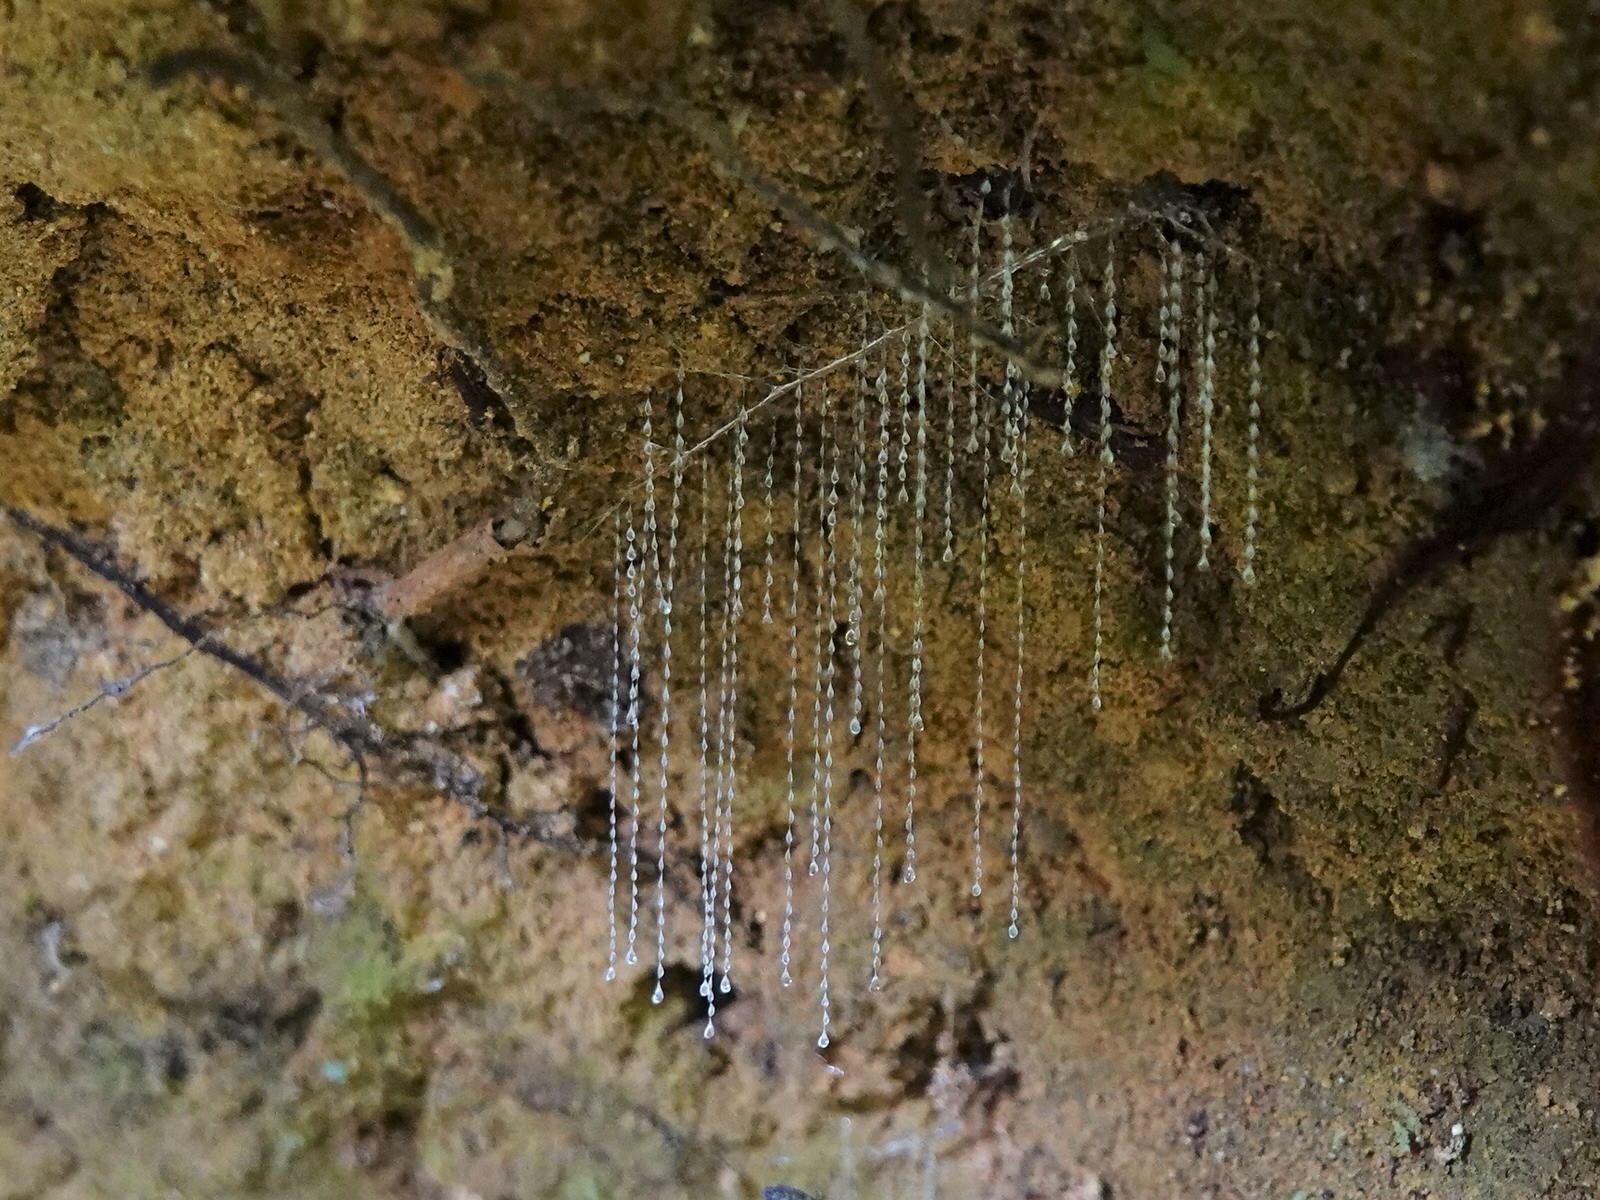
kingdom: Animalia
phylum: Arthropoda
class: Insecta
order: Diptera
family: Keroplatidae
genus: Arachnocampa
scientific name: Arachnocampa luminosa
